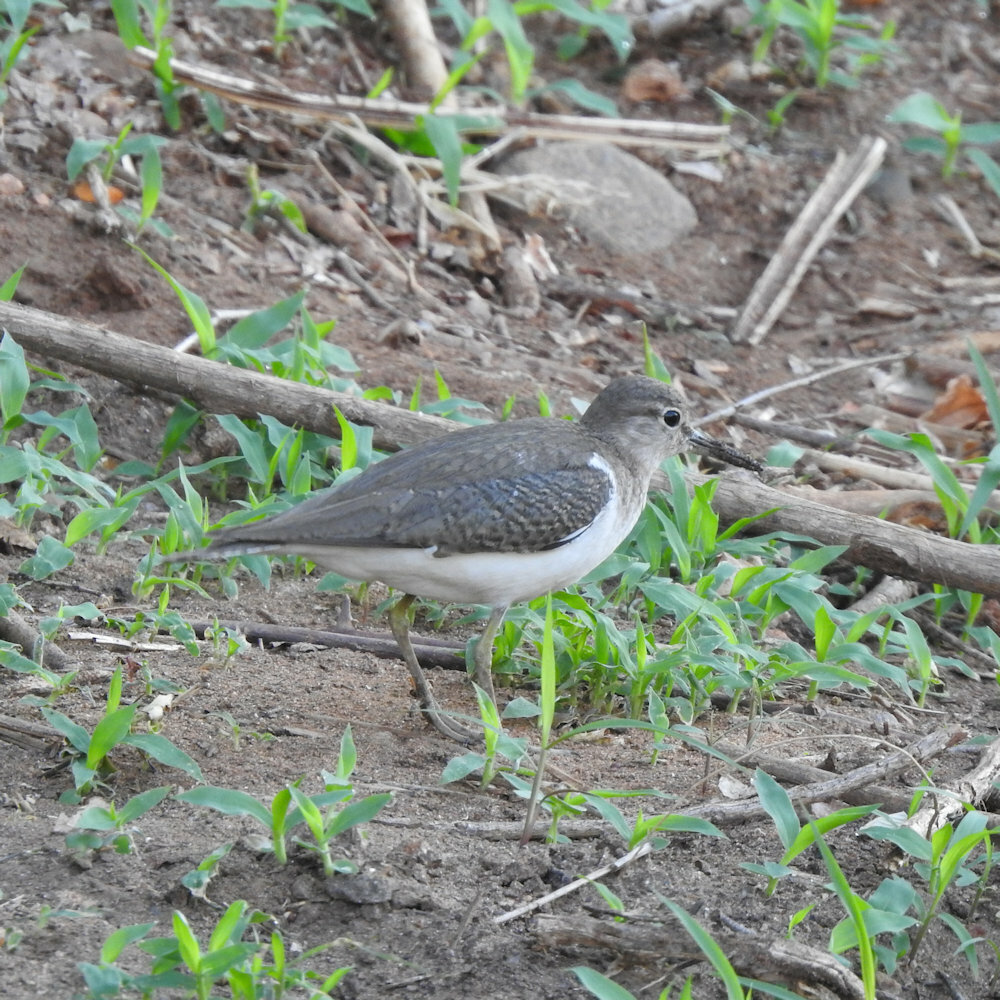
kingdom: Animalia
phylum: Chordata
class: Aves
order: Charadriiformes
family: Scolopacidae
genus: Actitis
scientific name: Actitis hypoleucos
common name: Common sandpiper
